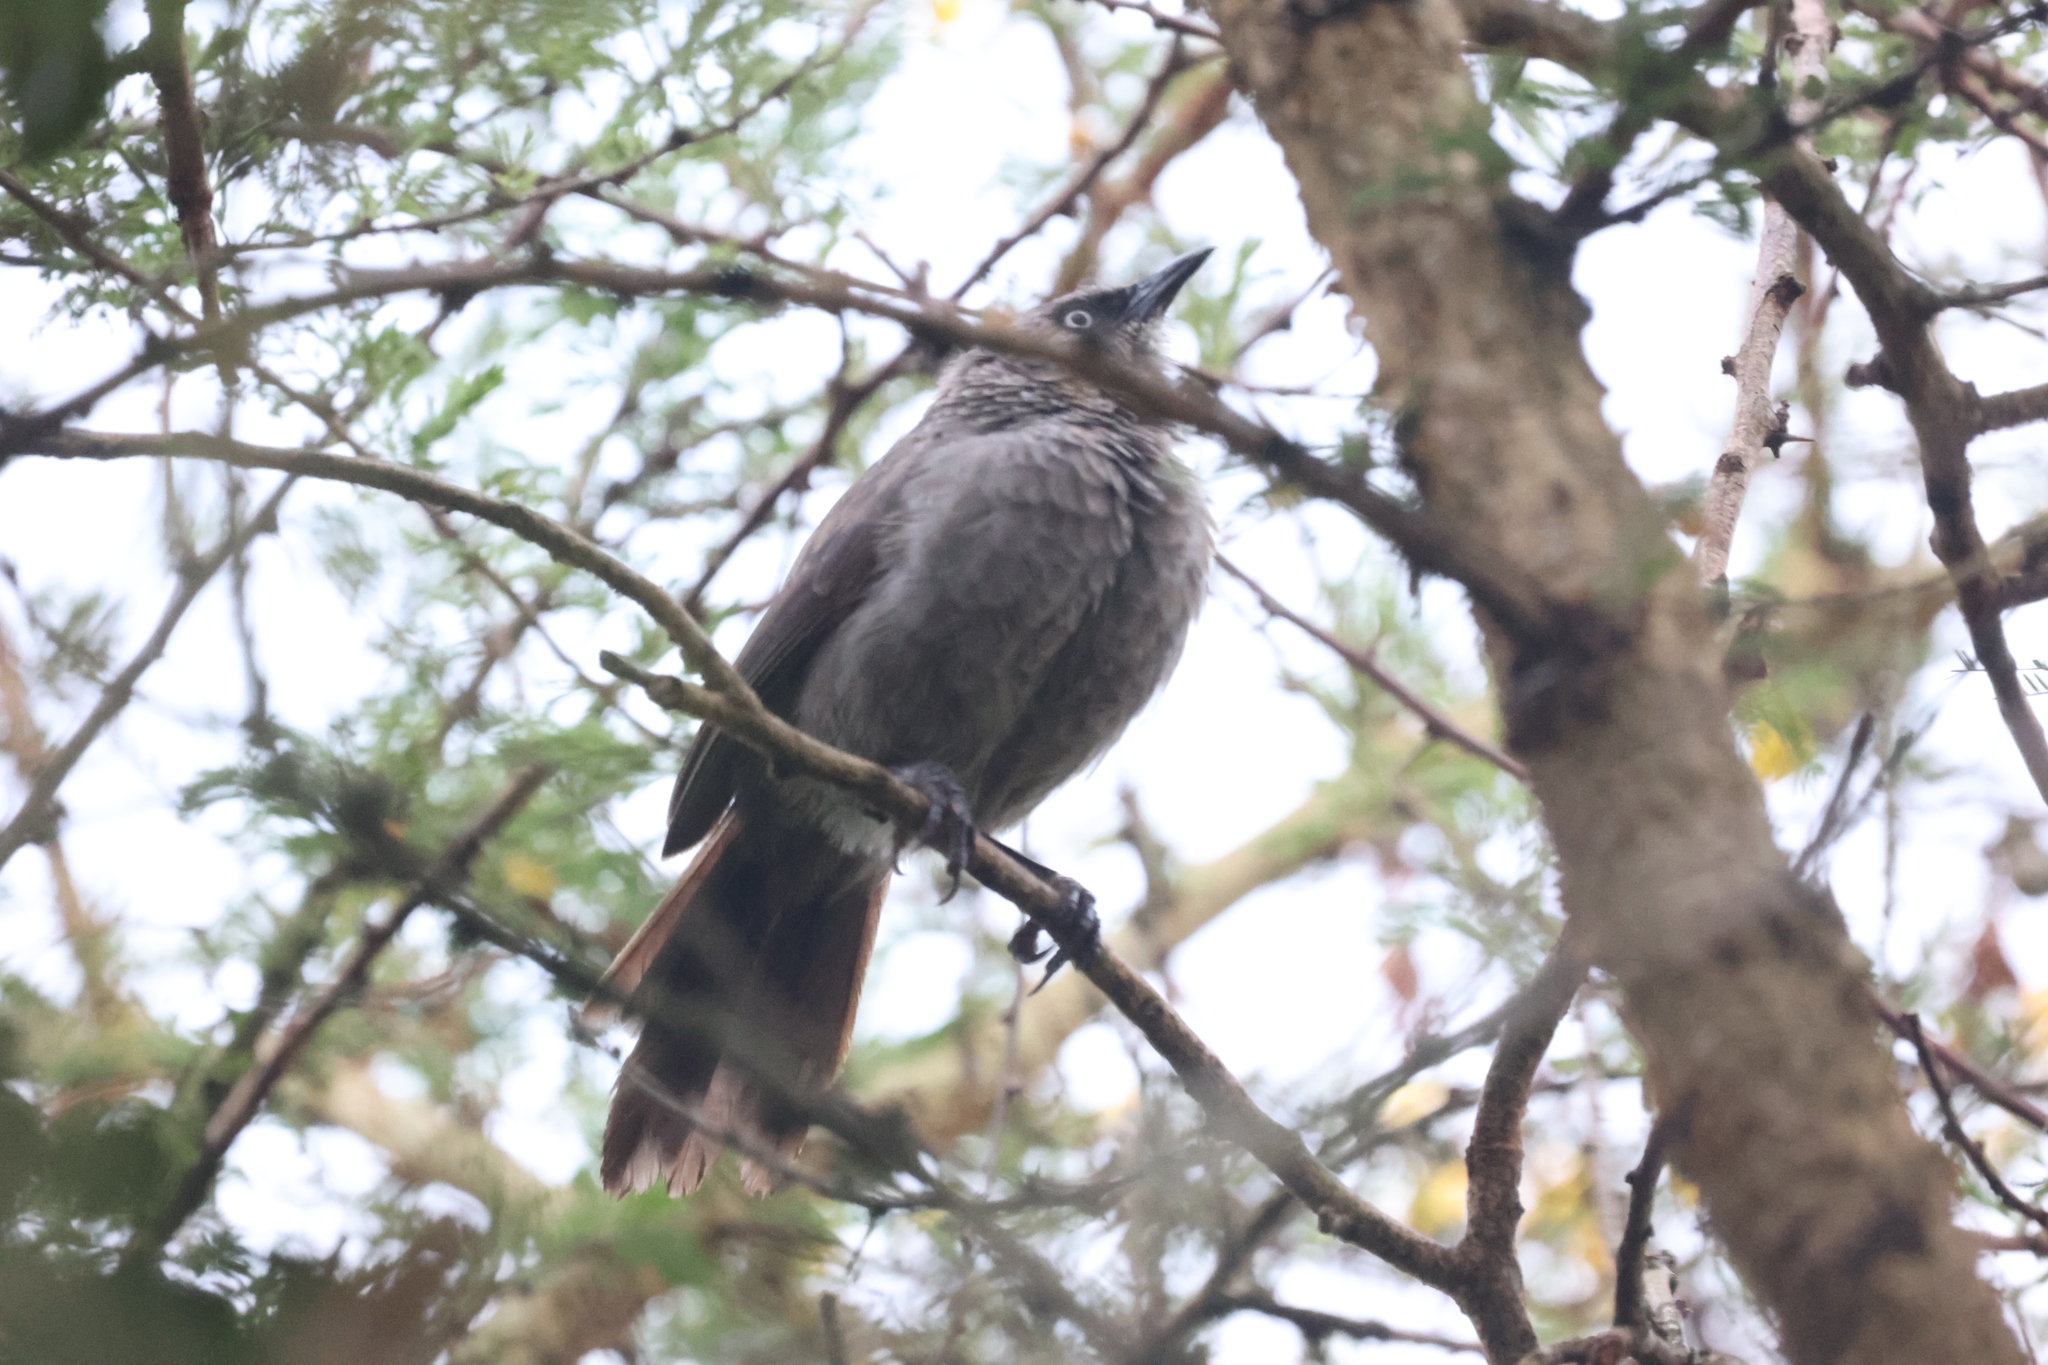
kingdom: Animalia
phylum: Chordata
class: Aves
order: Passeriformes
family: Leiothrichidae
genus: Turdoides
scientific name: Turdoides sharpei
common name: Black-lored babbler
